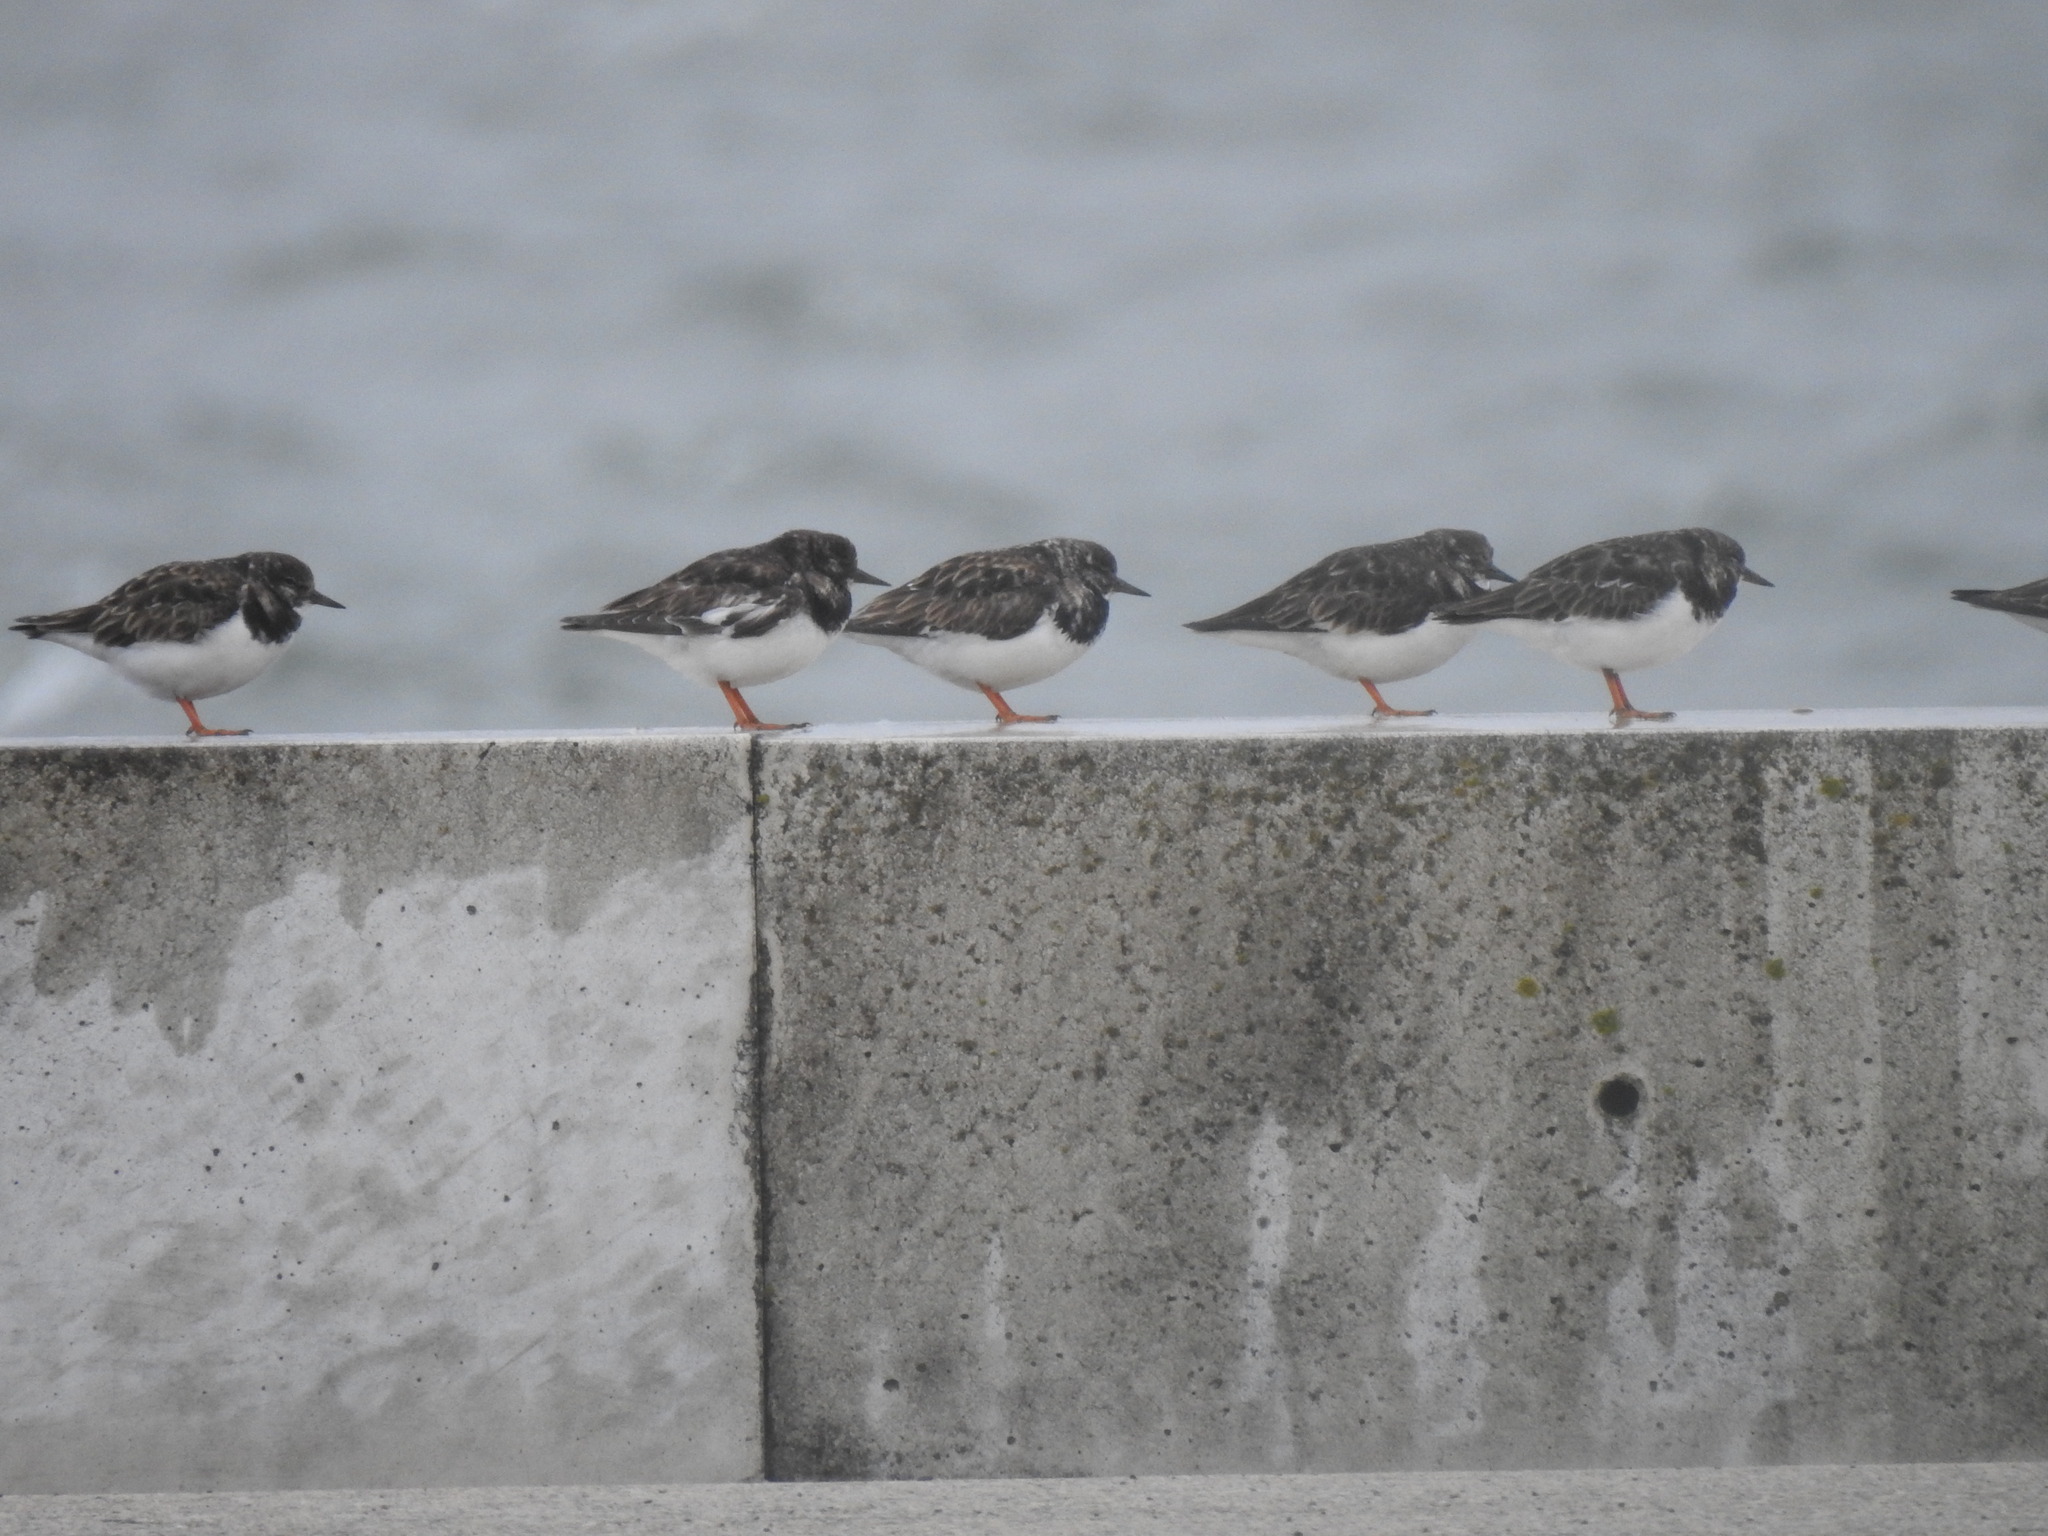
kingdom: Animalia
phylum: Chordata
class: Aves
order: Charadriiformes
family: Scolopacidae
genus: Arenaria
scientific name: Arenaria interpres
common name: Ruddy turnstone
